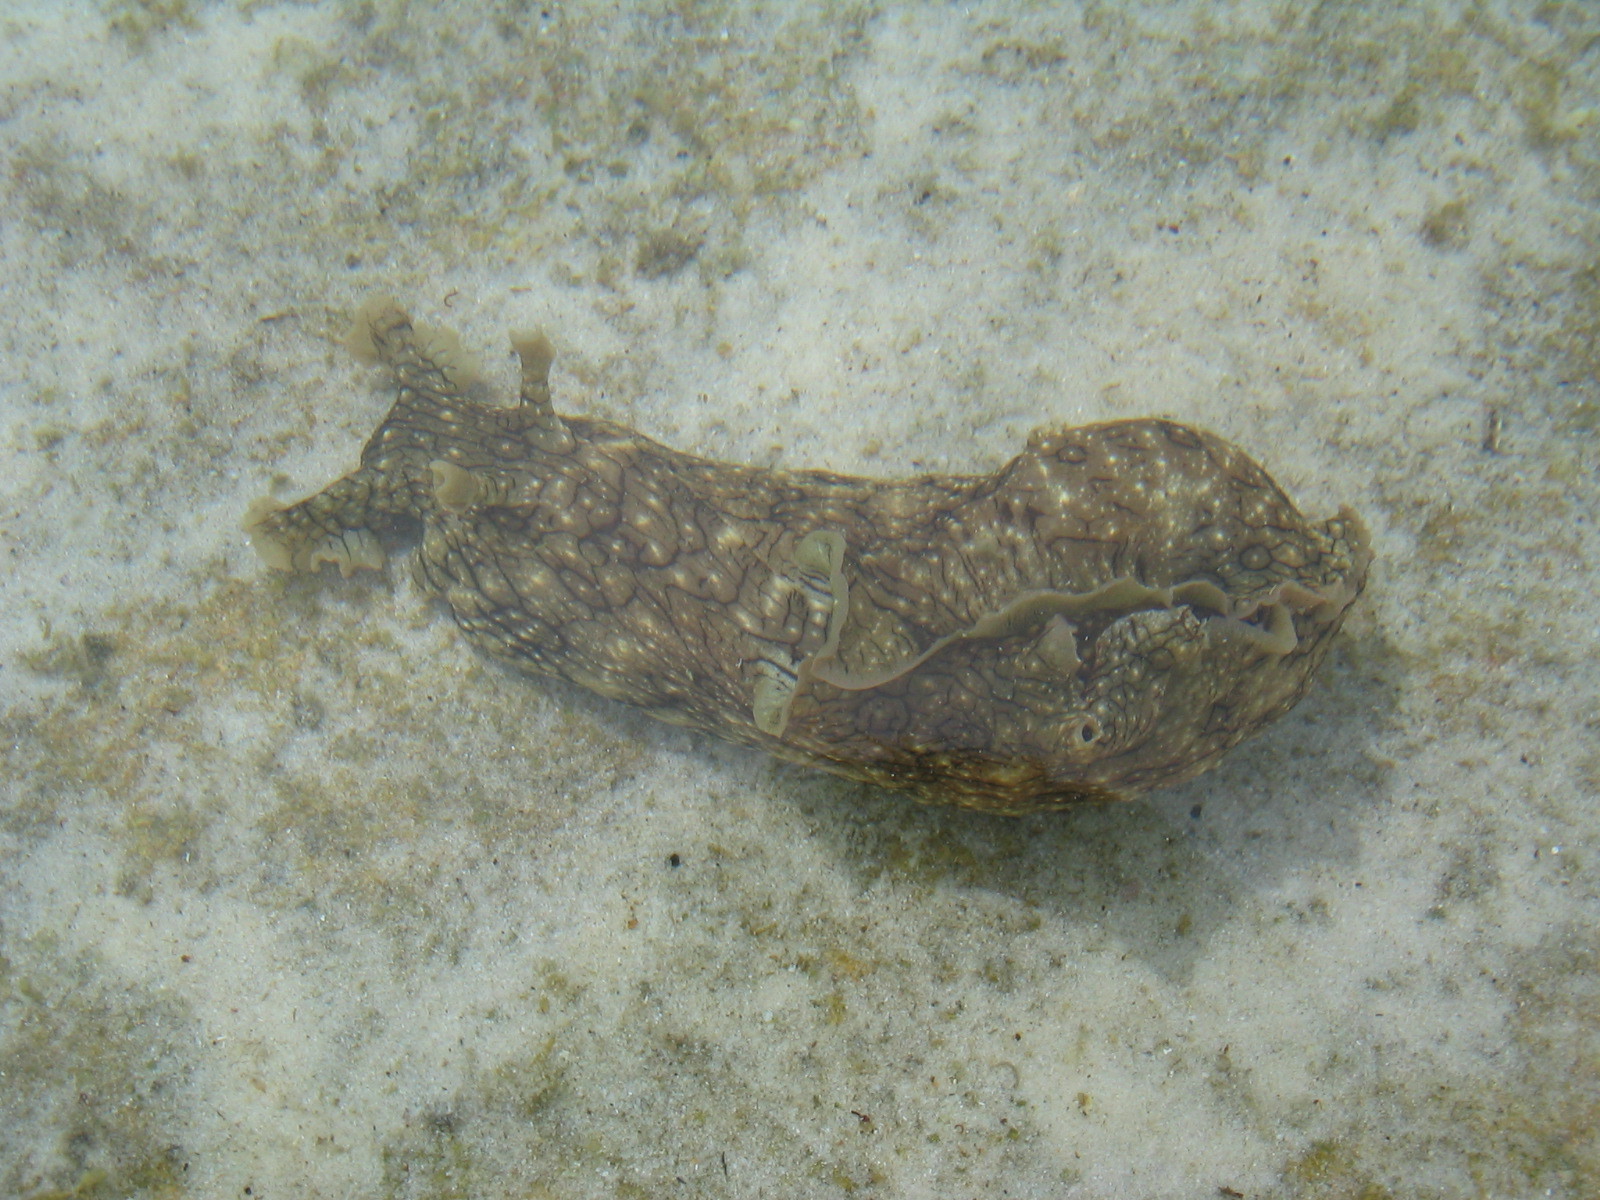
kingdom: Animalia
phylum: Mollusca
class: Gastropoda
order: Aplysiida
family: Aplysiidae
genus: Aplysia
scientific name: Aplysia argus
